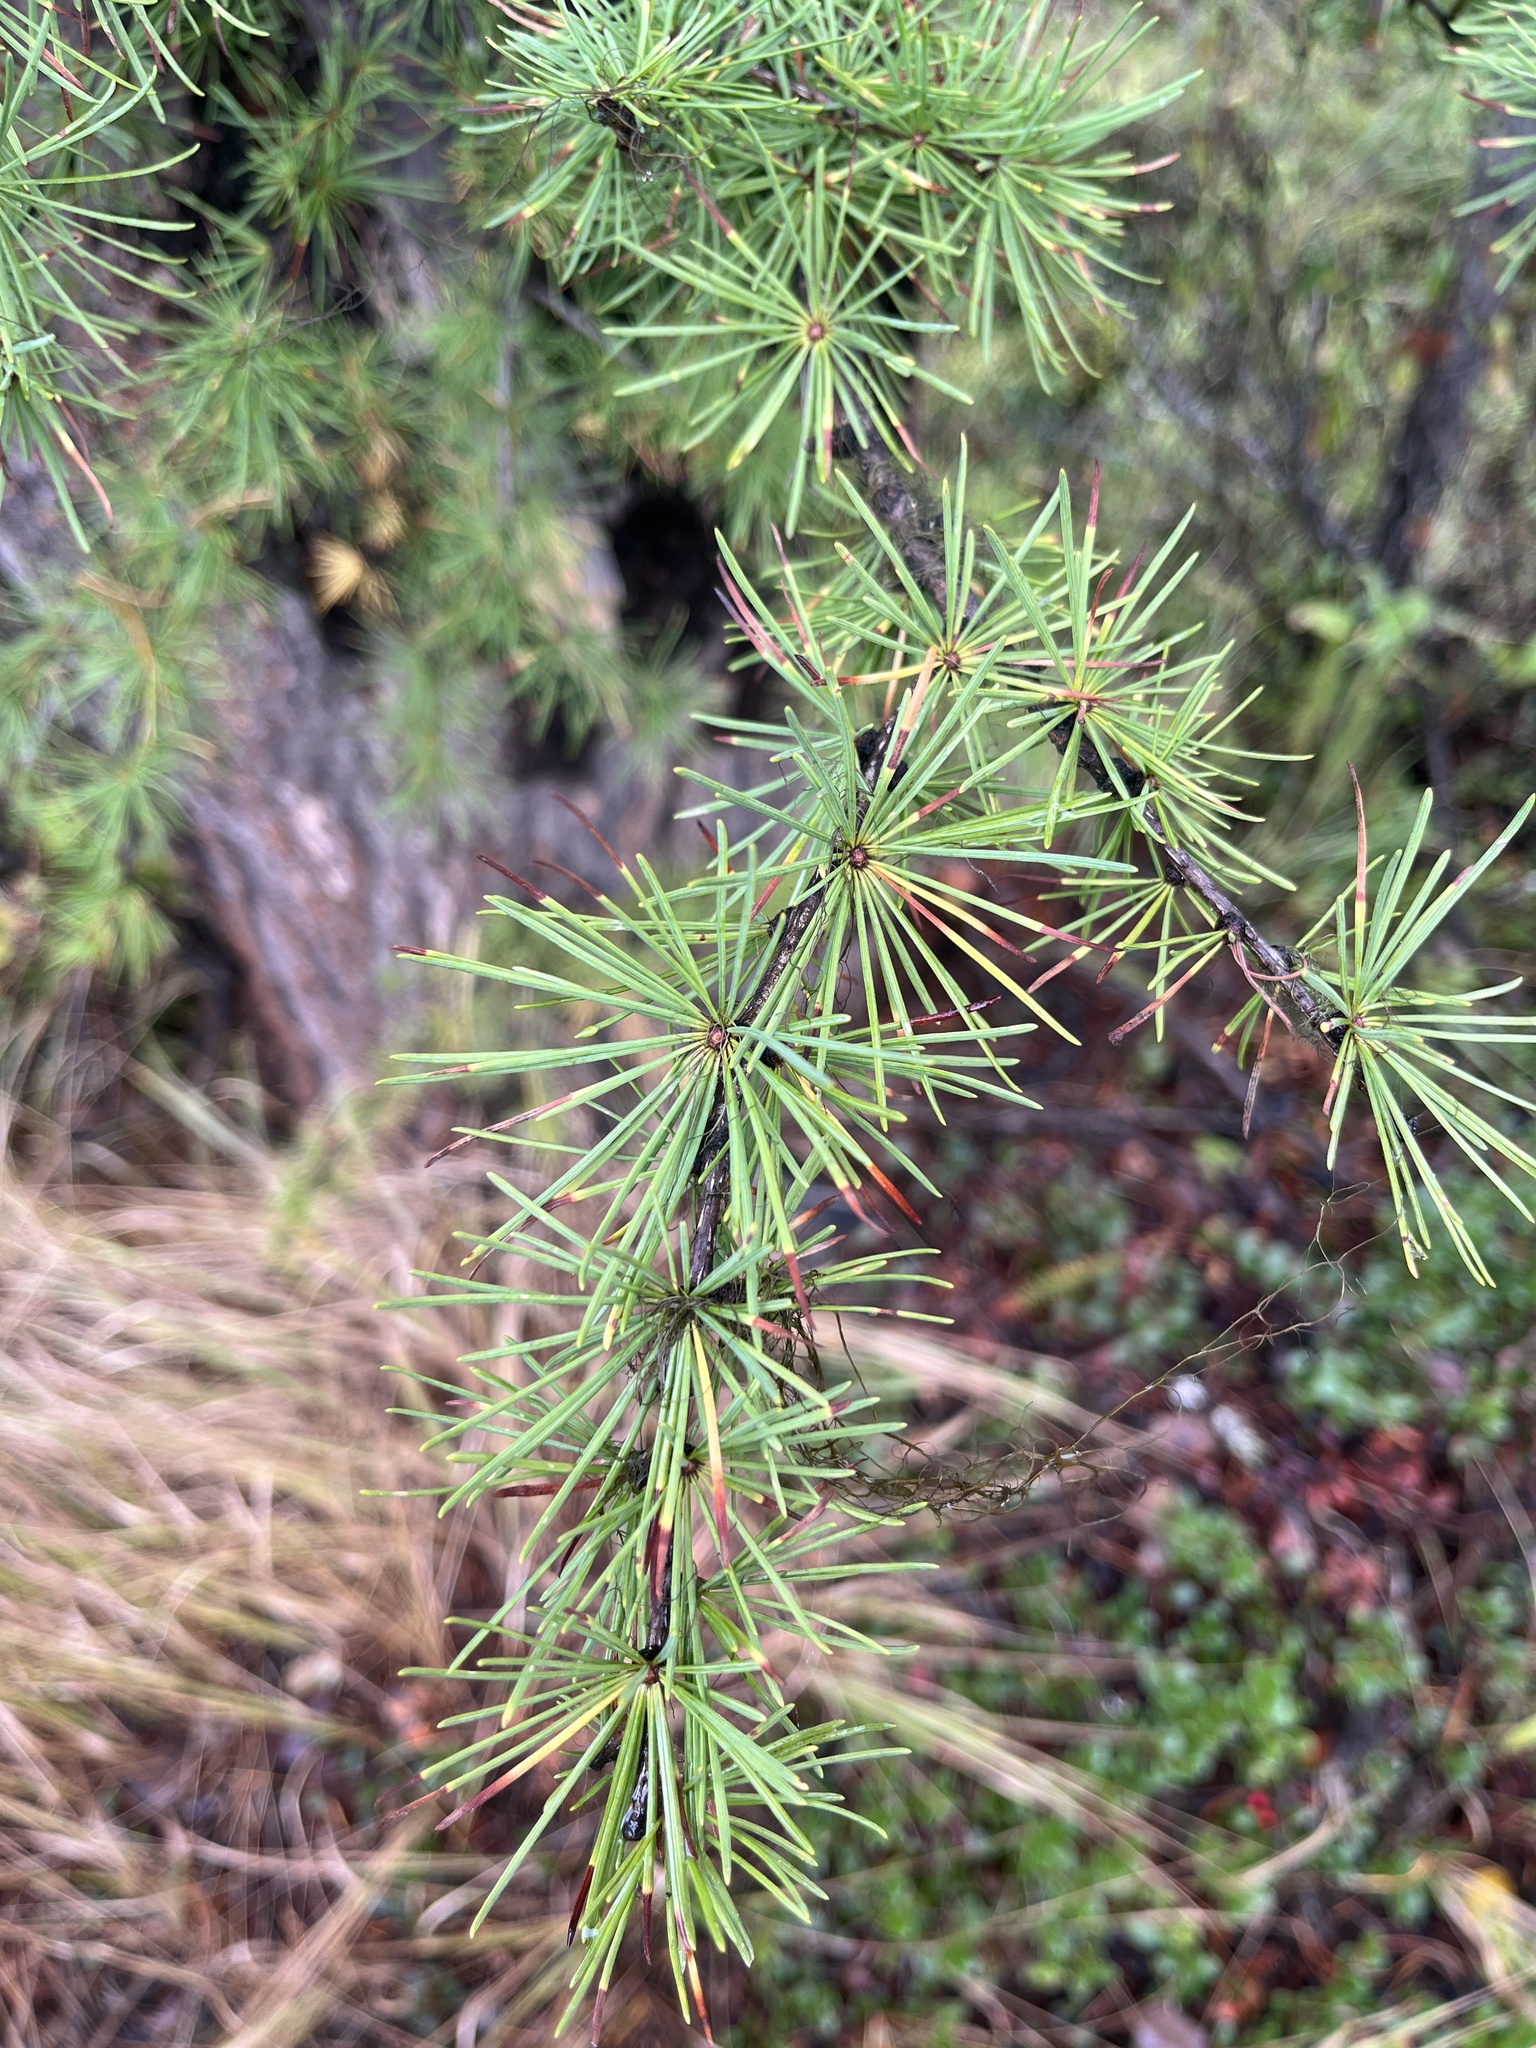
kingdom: Plantae
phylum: Tracheophyta
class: Pinopsida
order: Pinales
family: Pinaceae
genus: Larix
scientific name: Larix occidentalis
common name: Western larch
